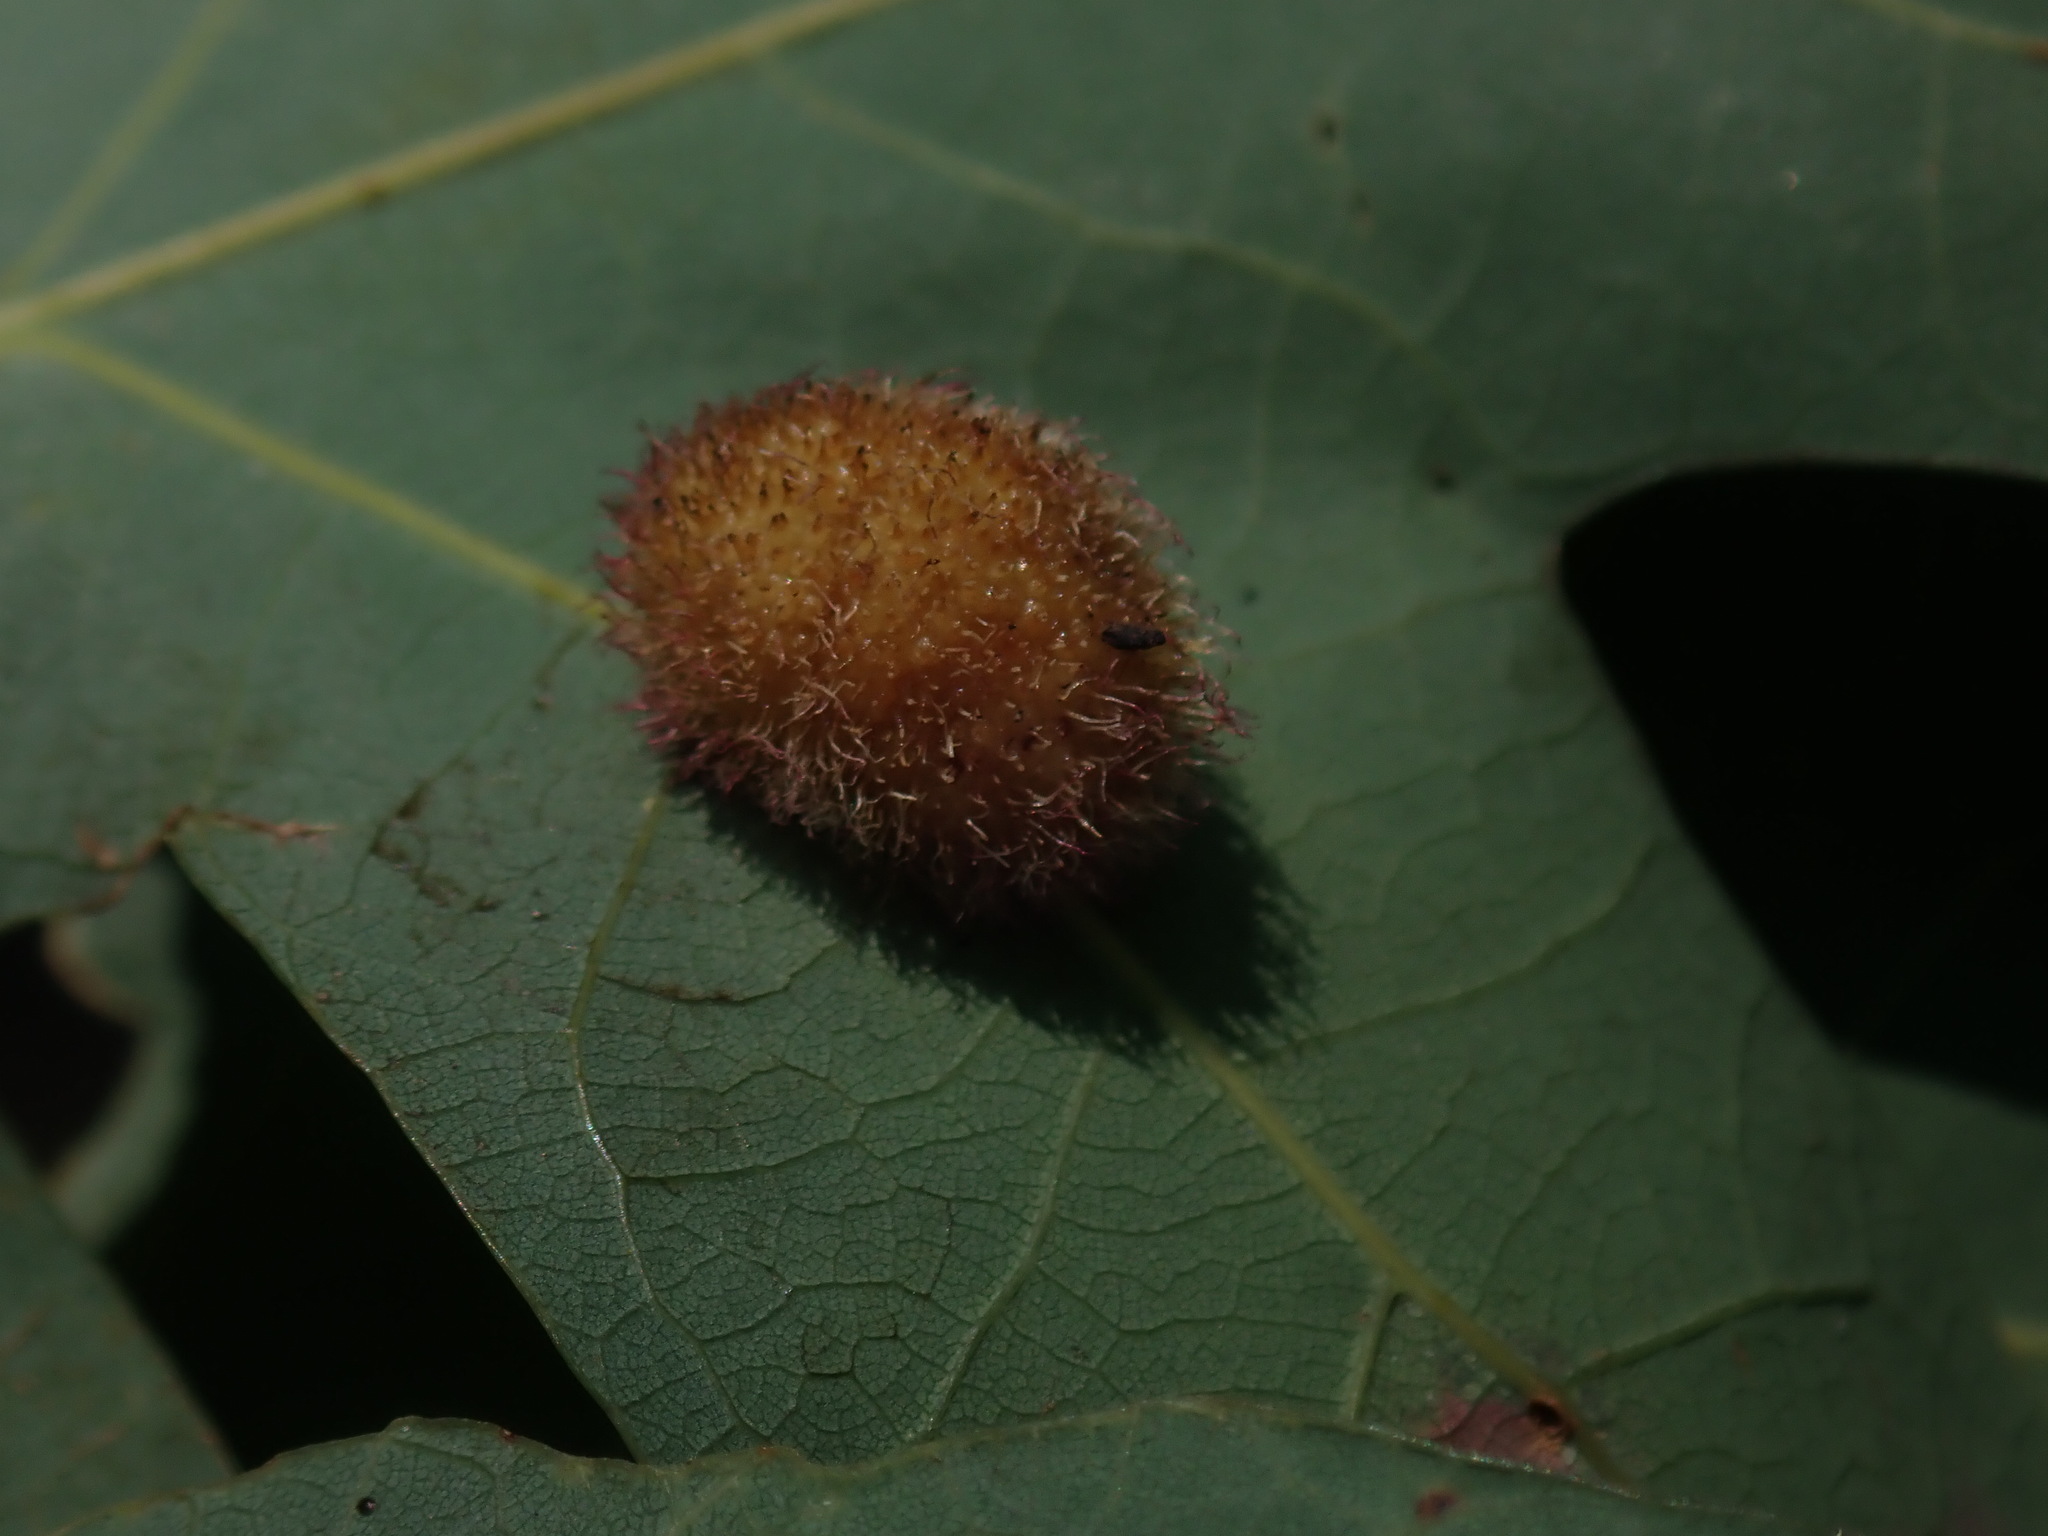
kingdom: Animalia
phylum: Arthropoda
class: Insecta
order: Hymenoptera
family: Cynipidae
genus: Acraspis
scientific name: Acraspis erinacei
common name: Hedgehog gall wasp
